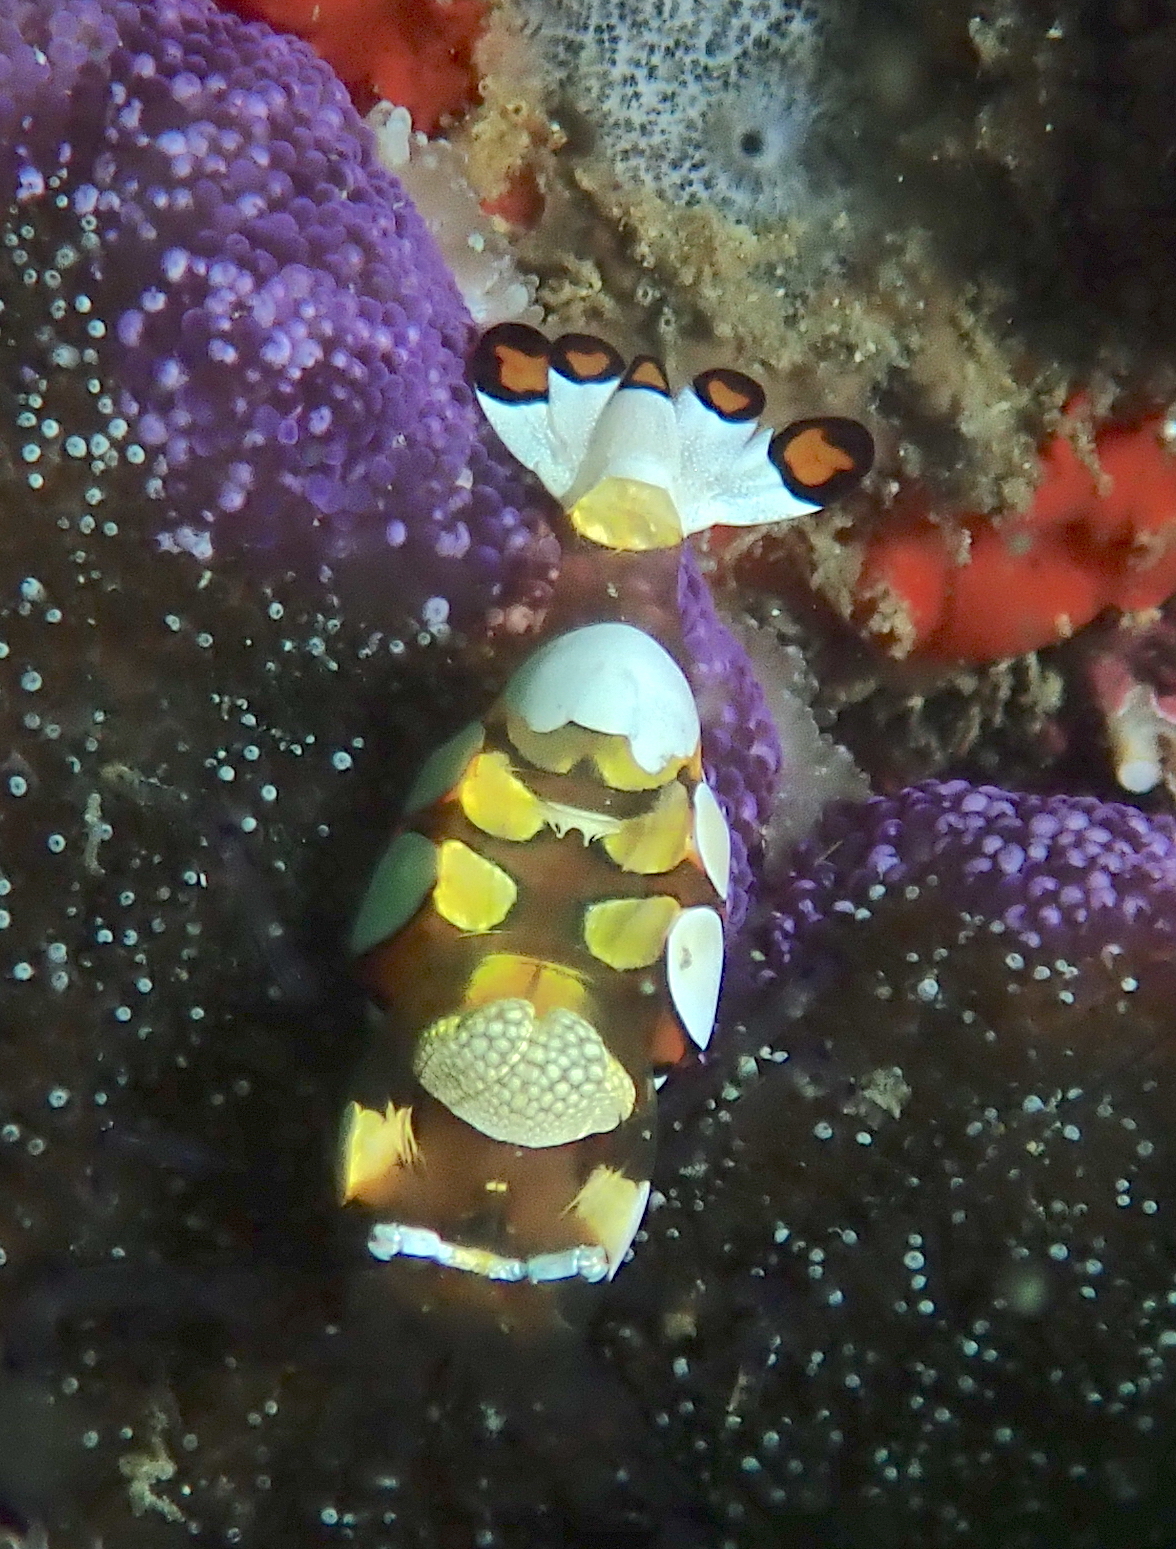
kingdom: Animalia
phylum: Arthropoda
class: Malacostraca
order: Decapoda
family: Palaemonidae
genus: Ancylocaris
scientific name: Ancylocaris brevicarpalis
